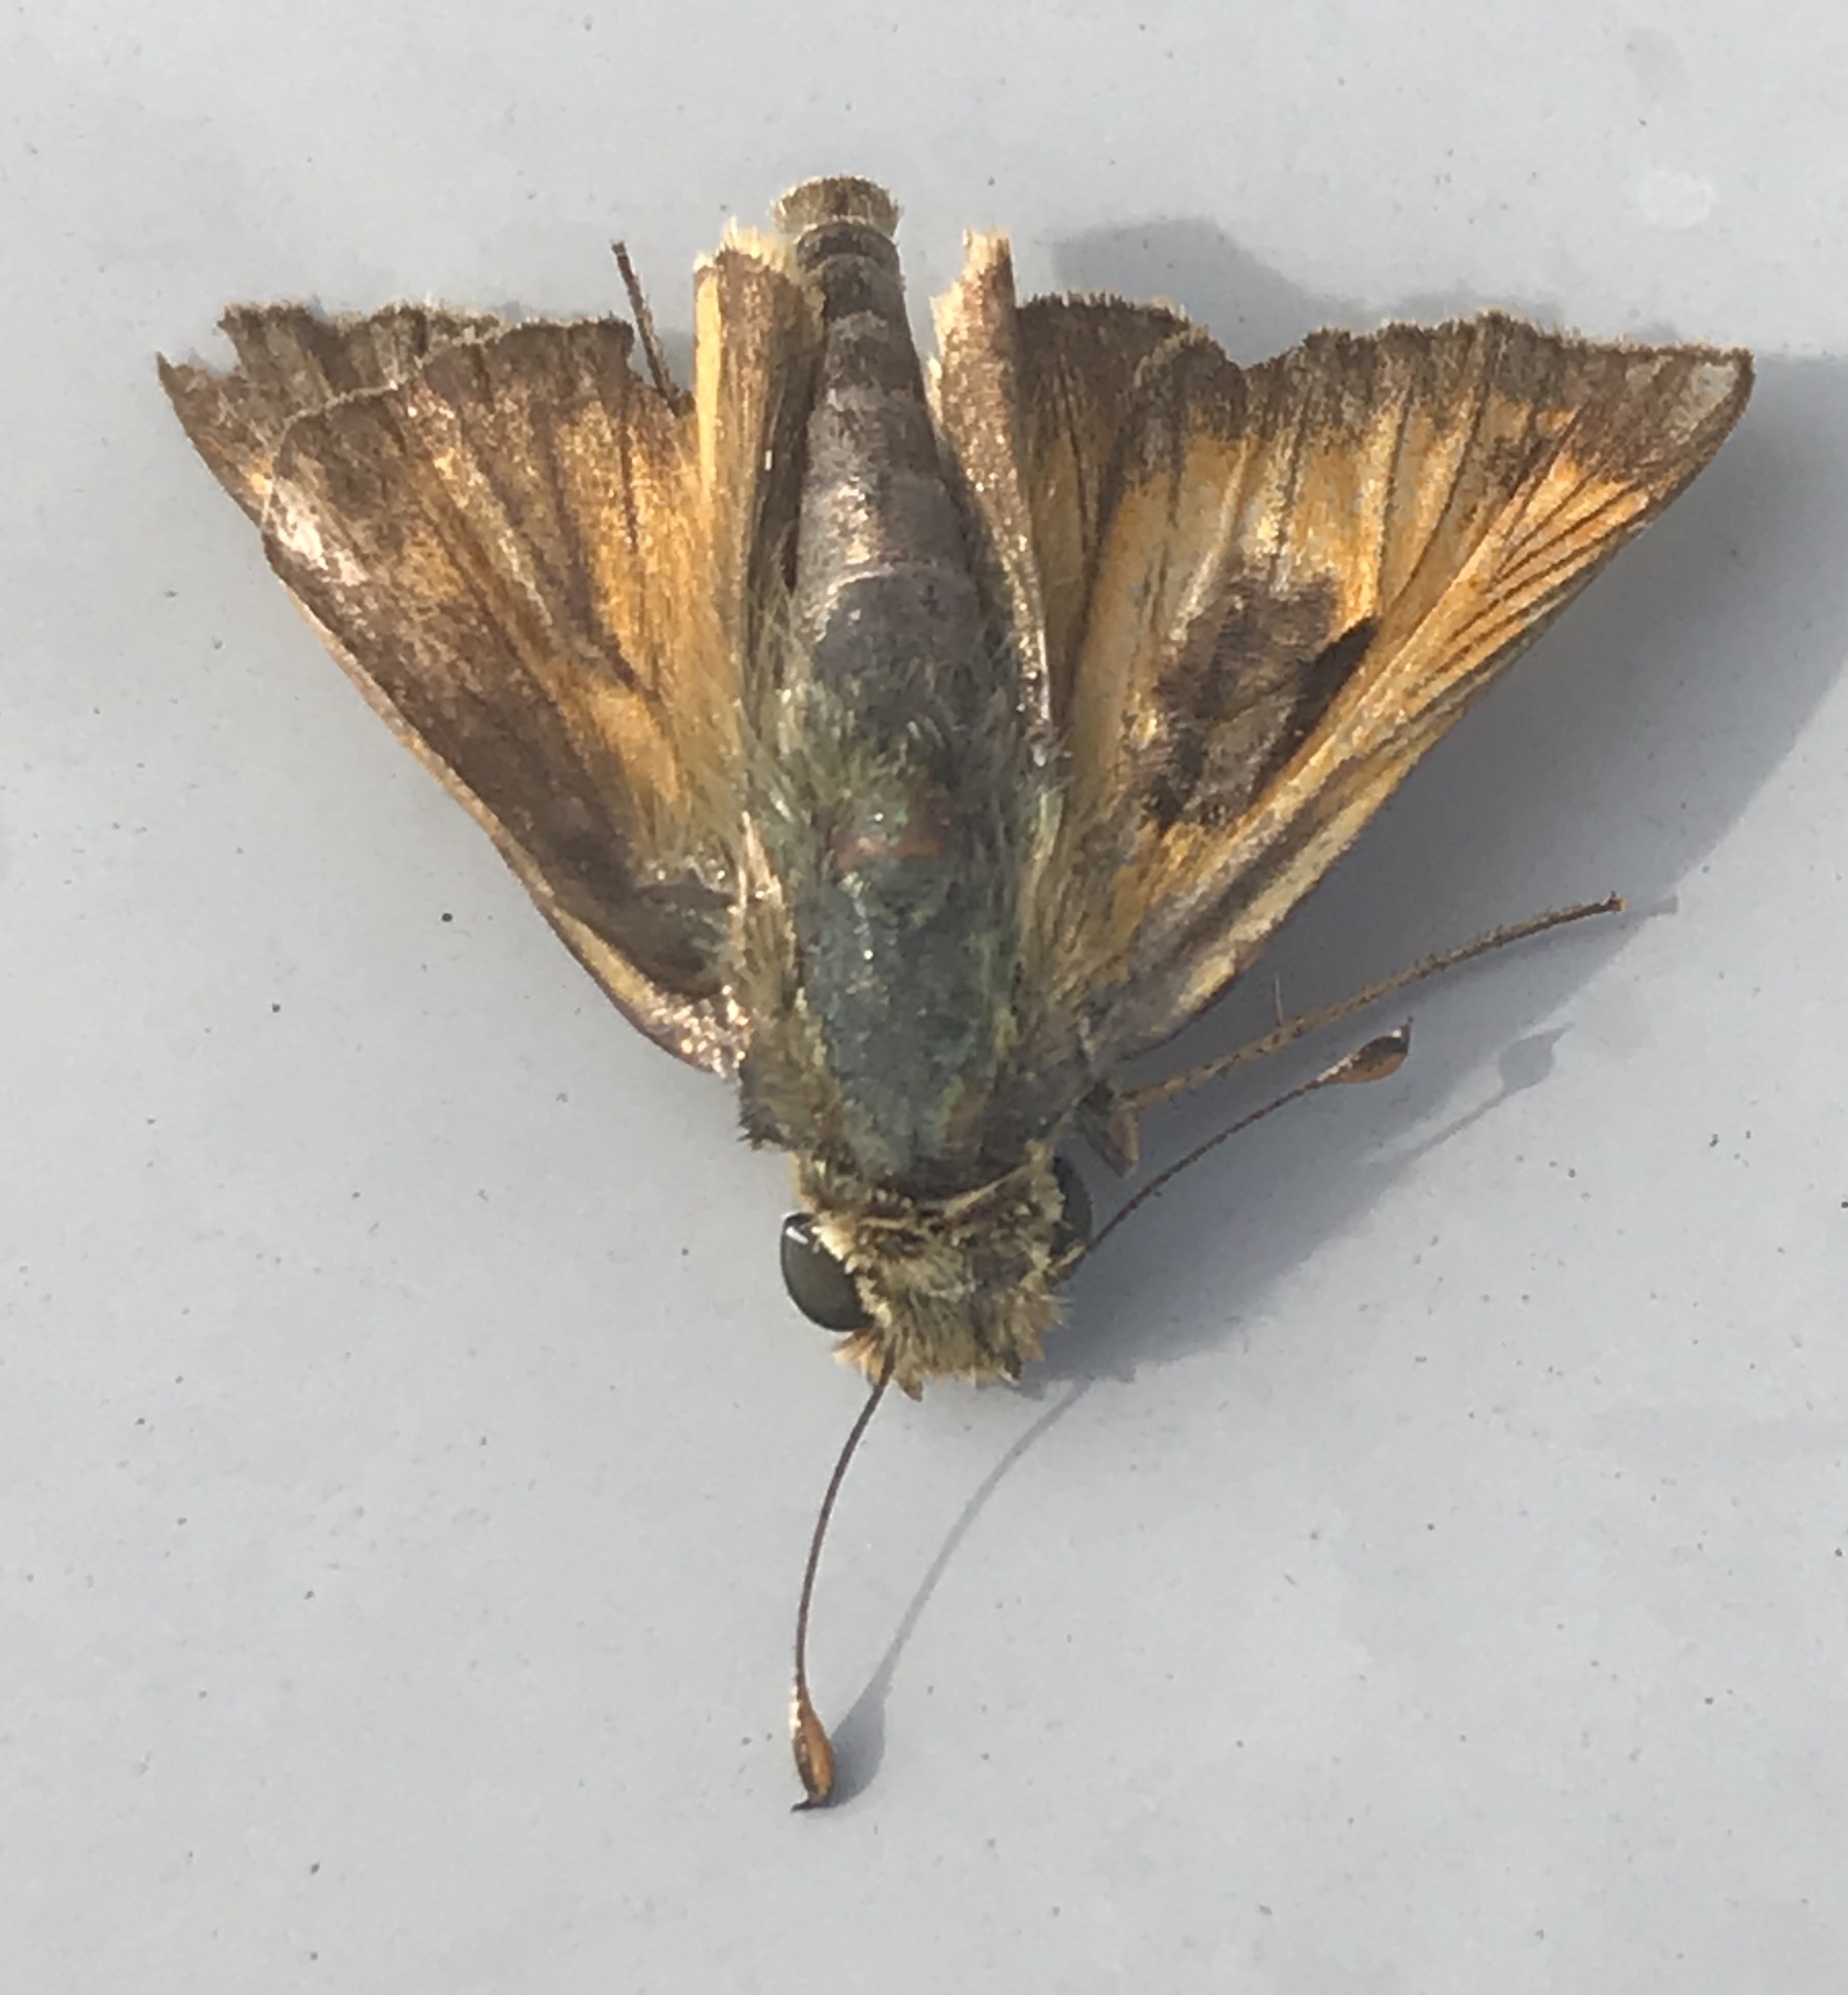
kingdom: Animalia
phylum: Arthropoda
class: Insecta
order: Lepidoptera
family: Hesperiidae
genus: Atalopedes
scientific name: Atalopedes
